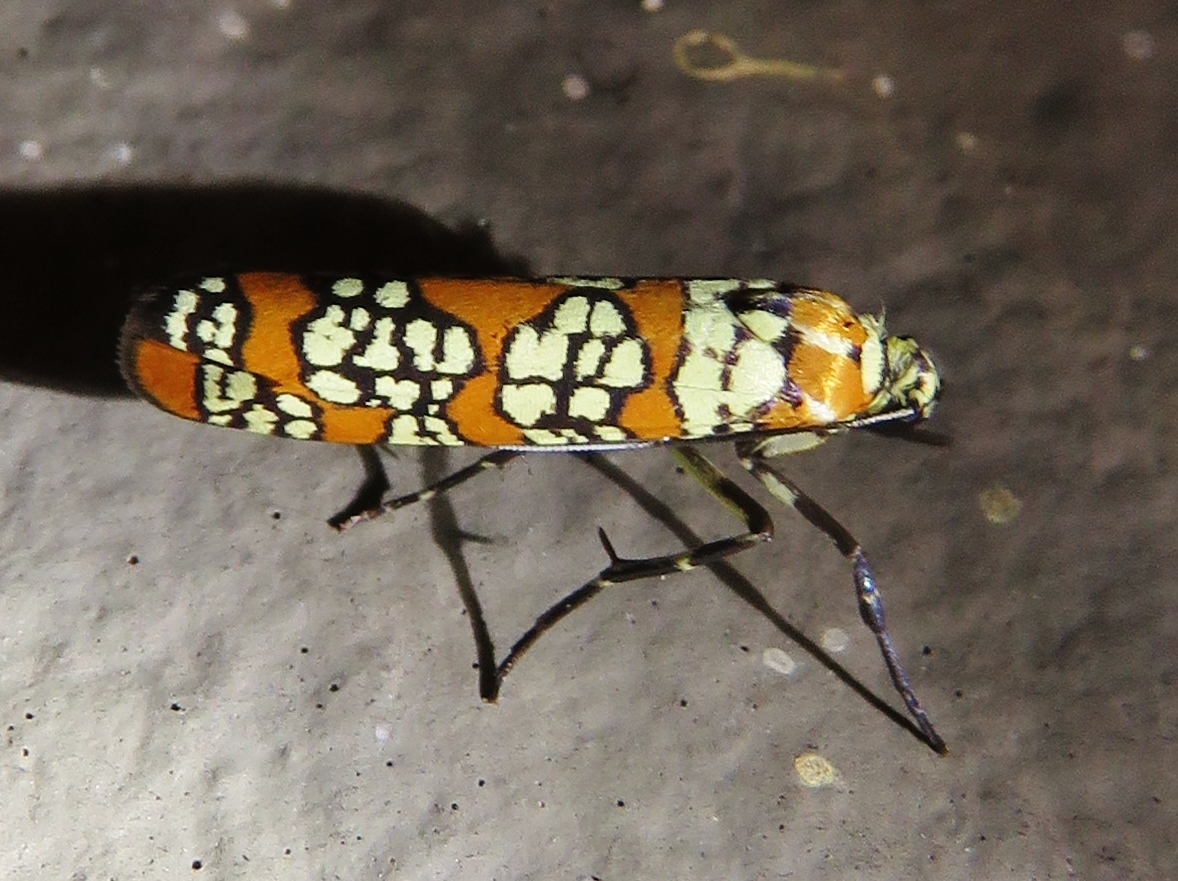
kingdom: Animalia
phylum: Arthropoda
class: Insecta
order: Lepidoptera
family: Attevidae
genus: Atteva
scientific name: Atteva punctella
